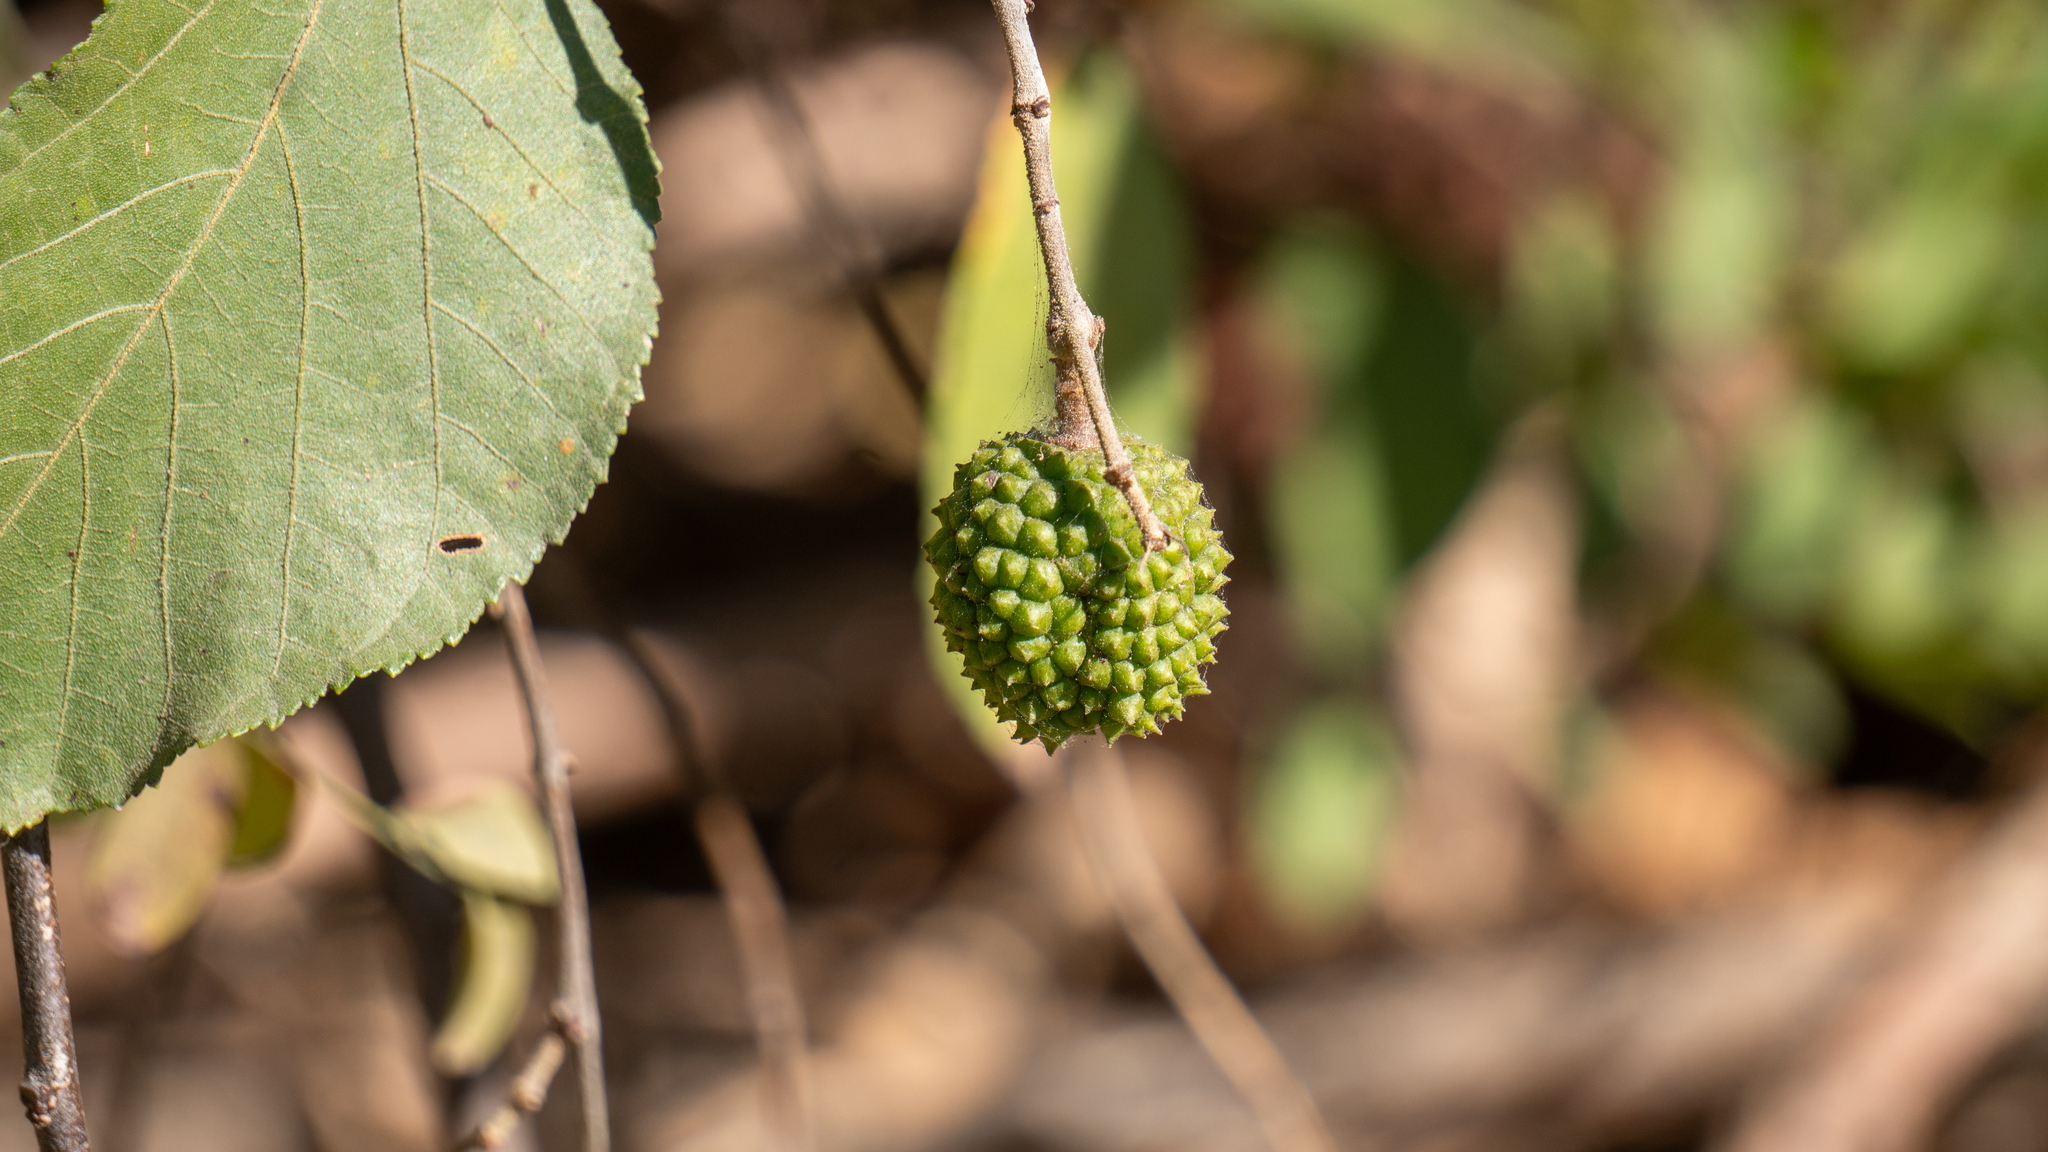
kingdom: Plantae
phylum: Tracheophyta
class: Magnoliopsida
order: Malvales
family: Malvaceae
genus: Guazuma
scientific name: Guazuma ulmifolia
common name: Bastard-cedar
